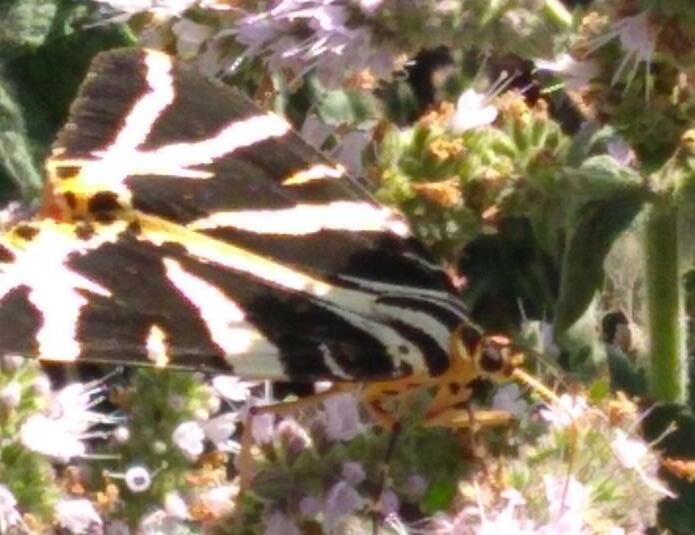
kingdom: Animalia
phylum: Arthropoda
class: Insecta
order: Lepidoptera
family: Erebidae
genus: Euplagia
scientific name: Euplagia quadripunctaria
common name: Jersey tiger
